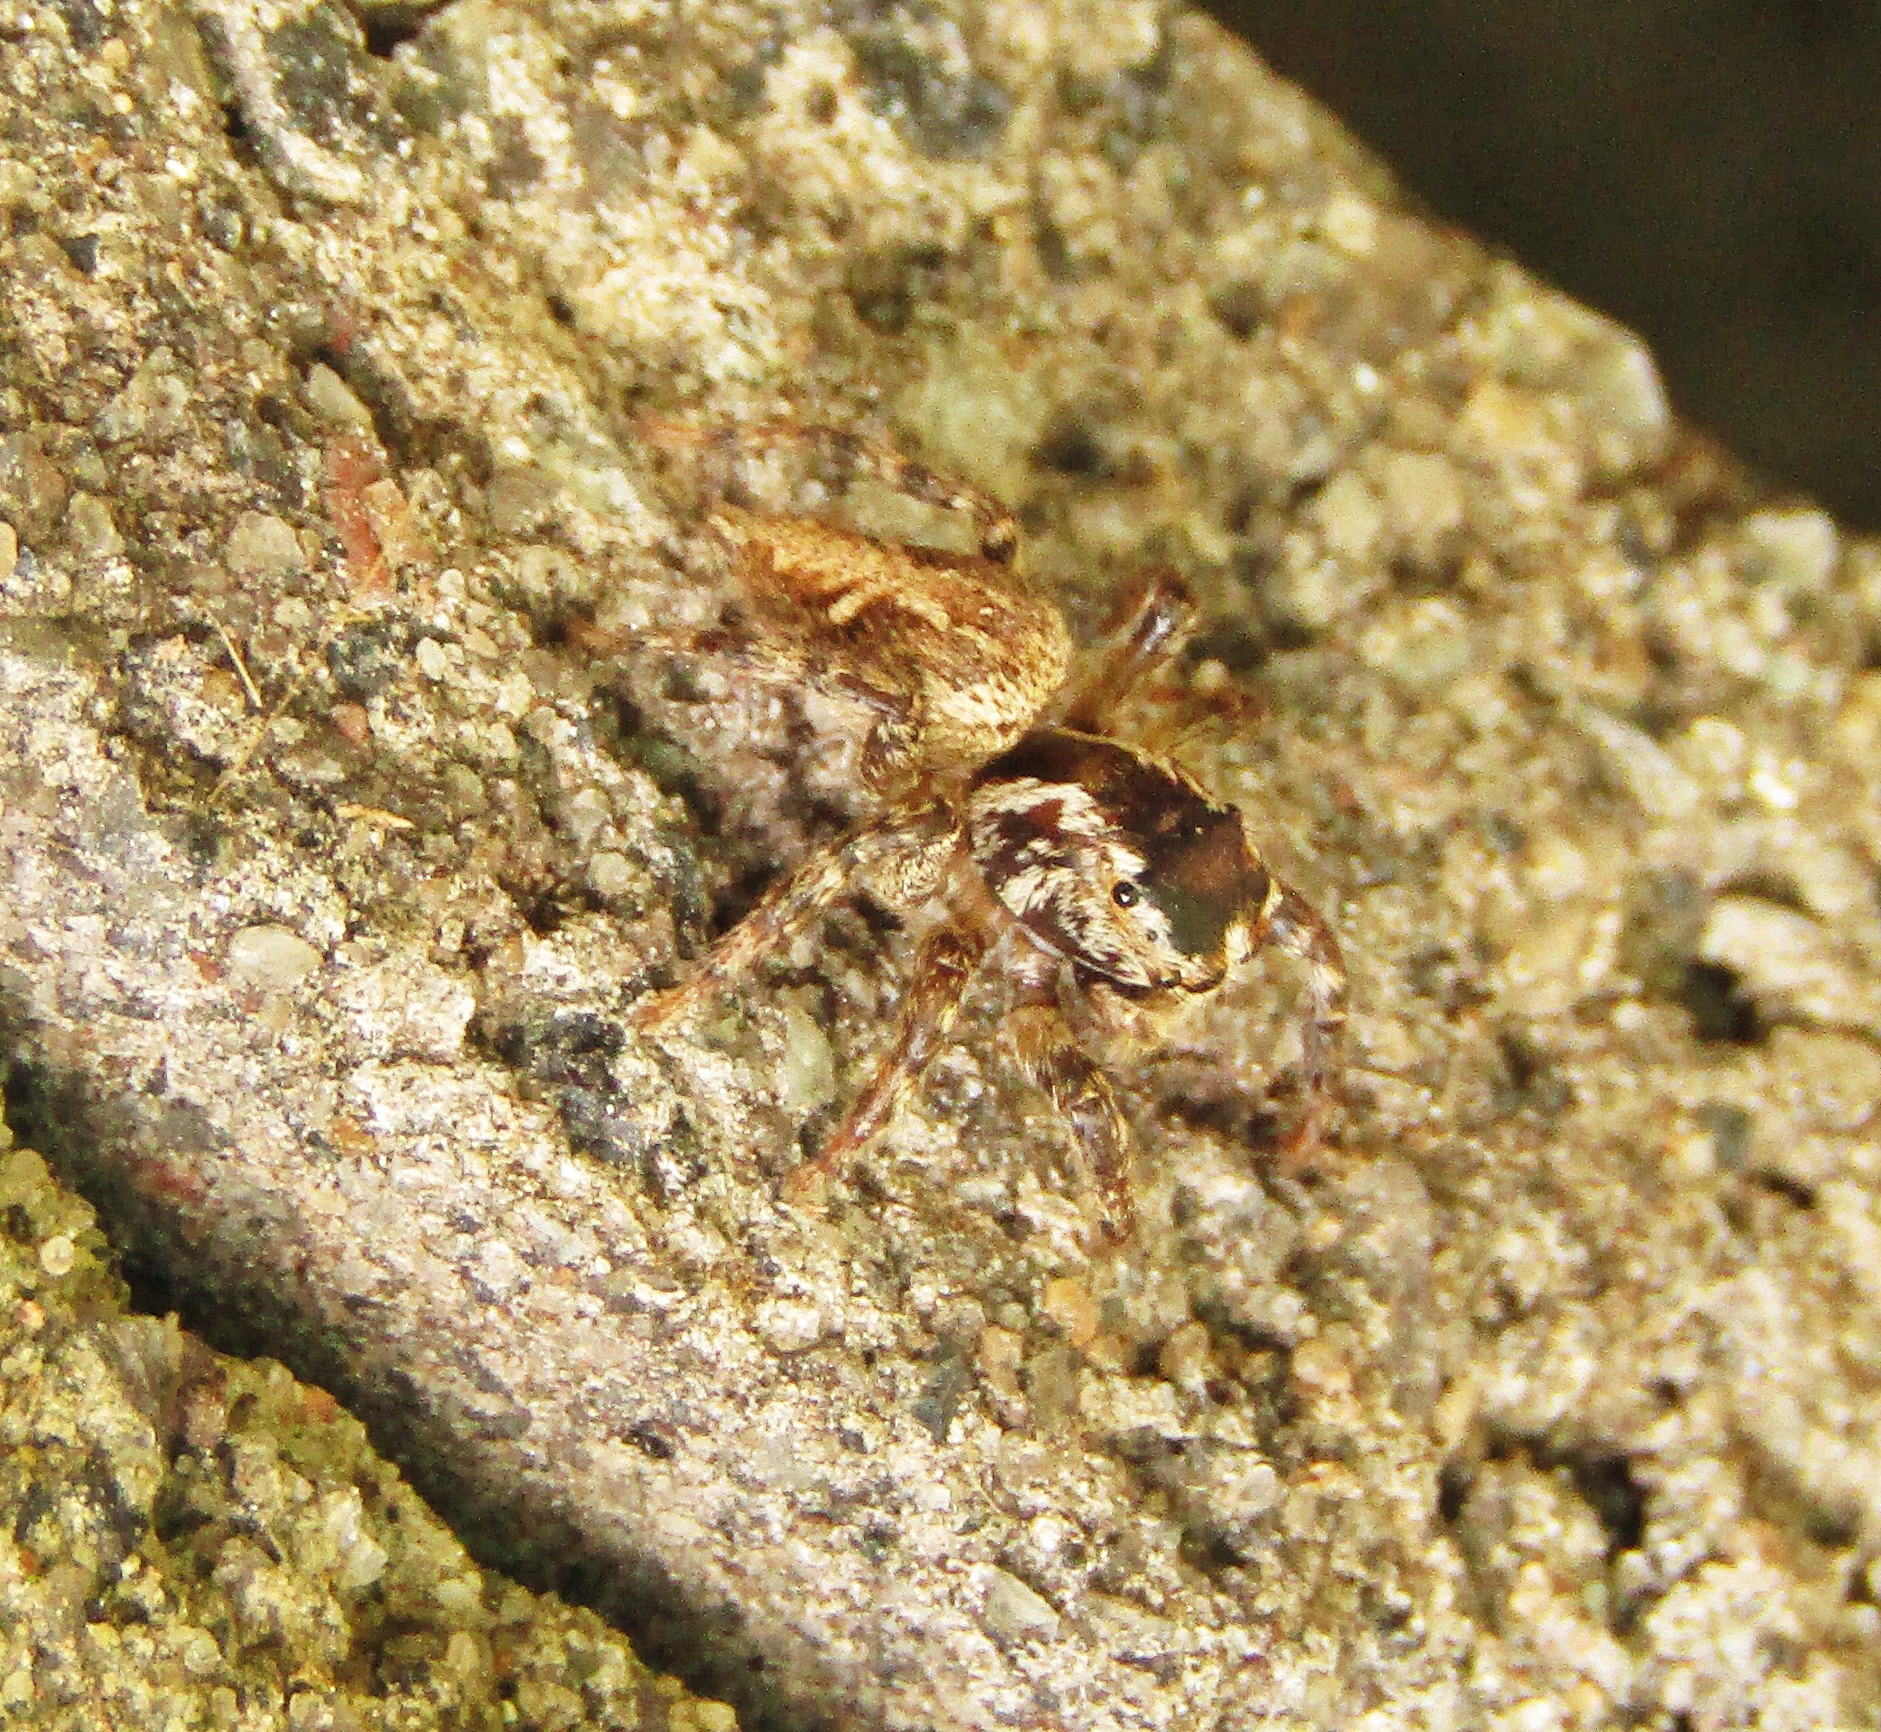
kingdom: Animalia
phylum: Arthropoda
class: Arachnida
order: Araneae
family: Salticidae
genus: Aphirape
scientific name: Aphirape
